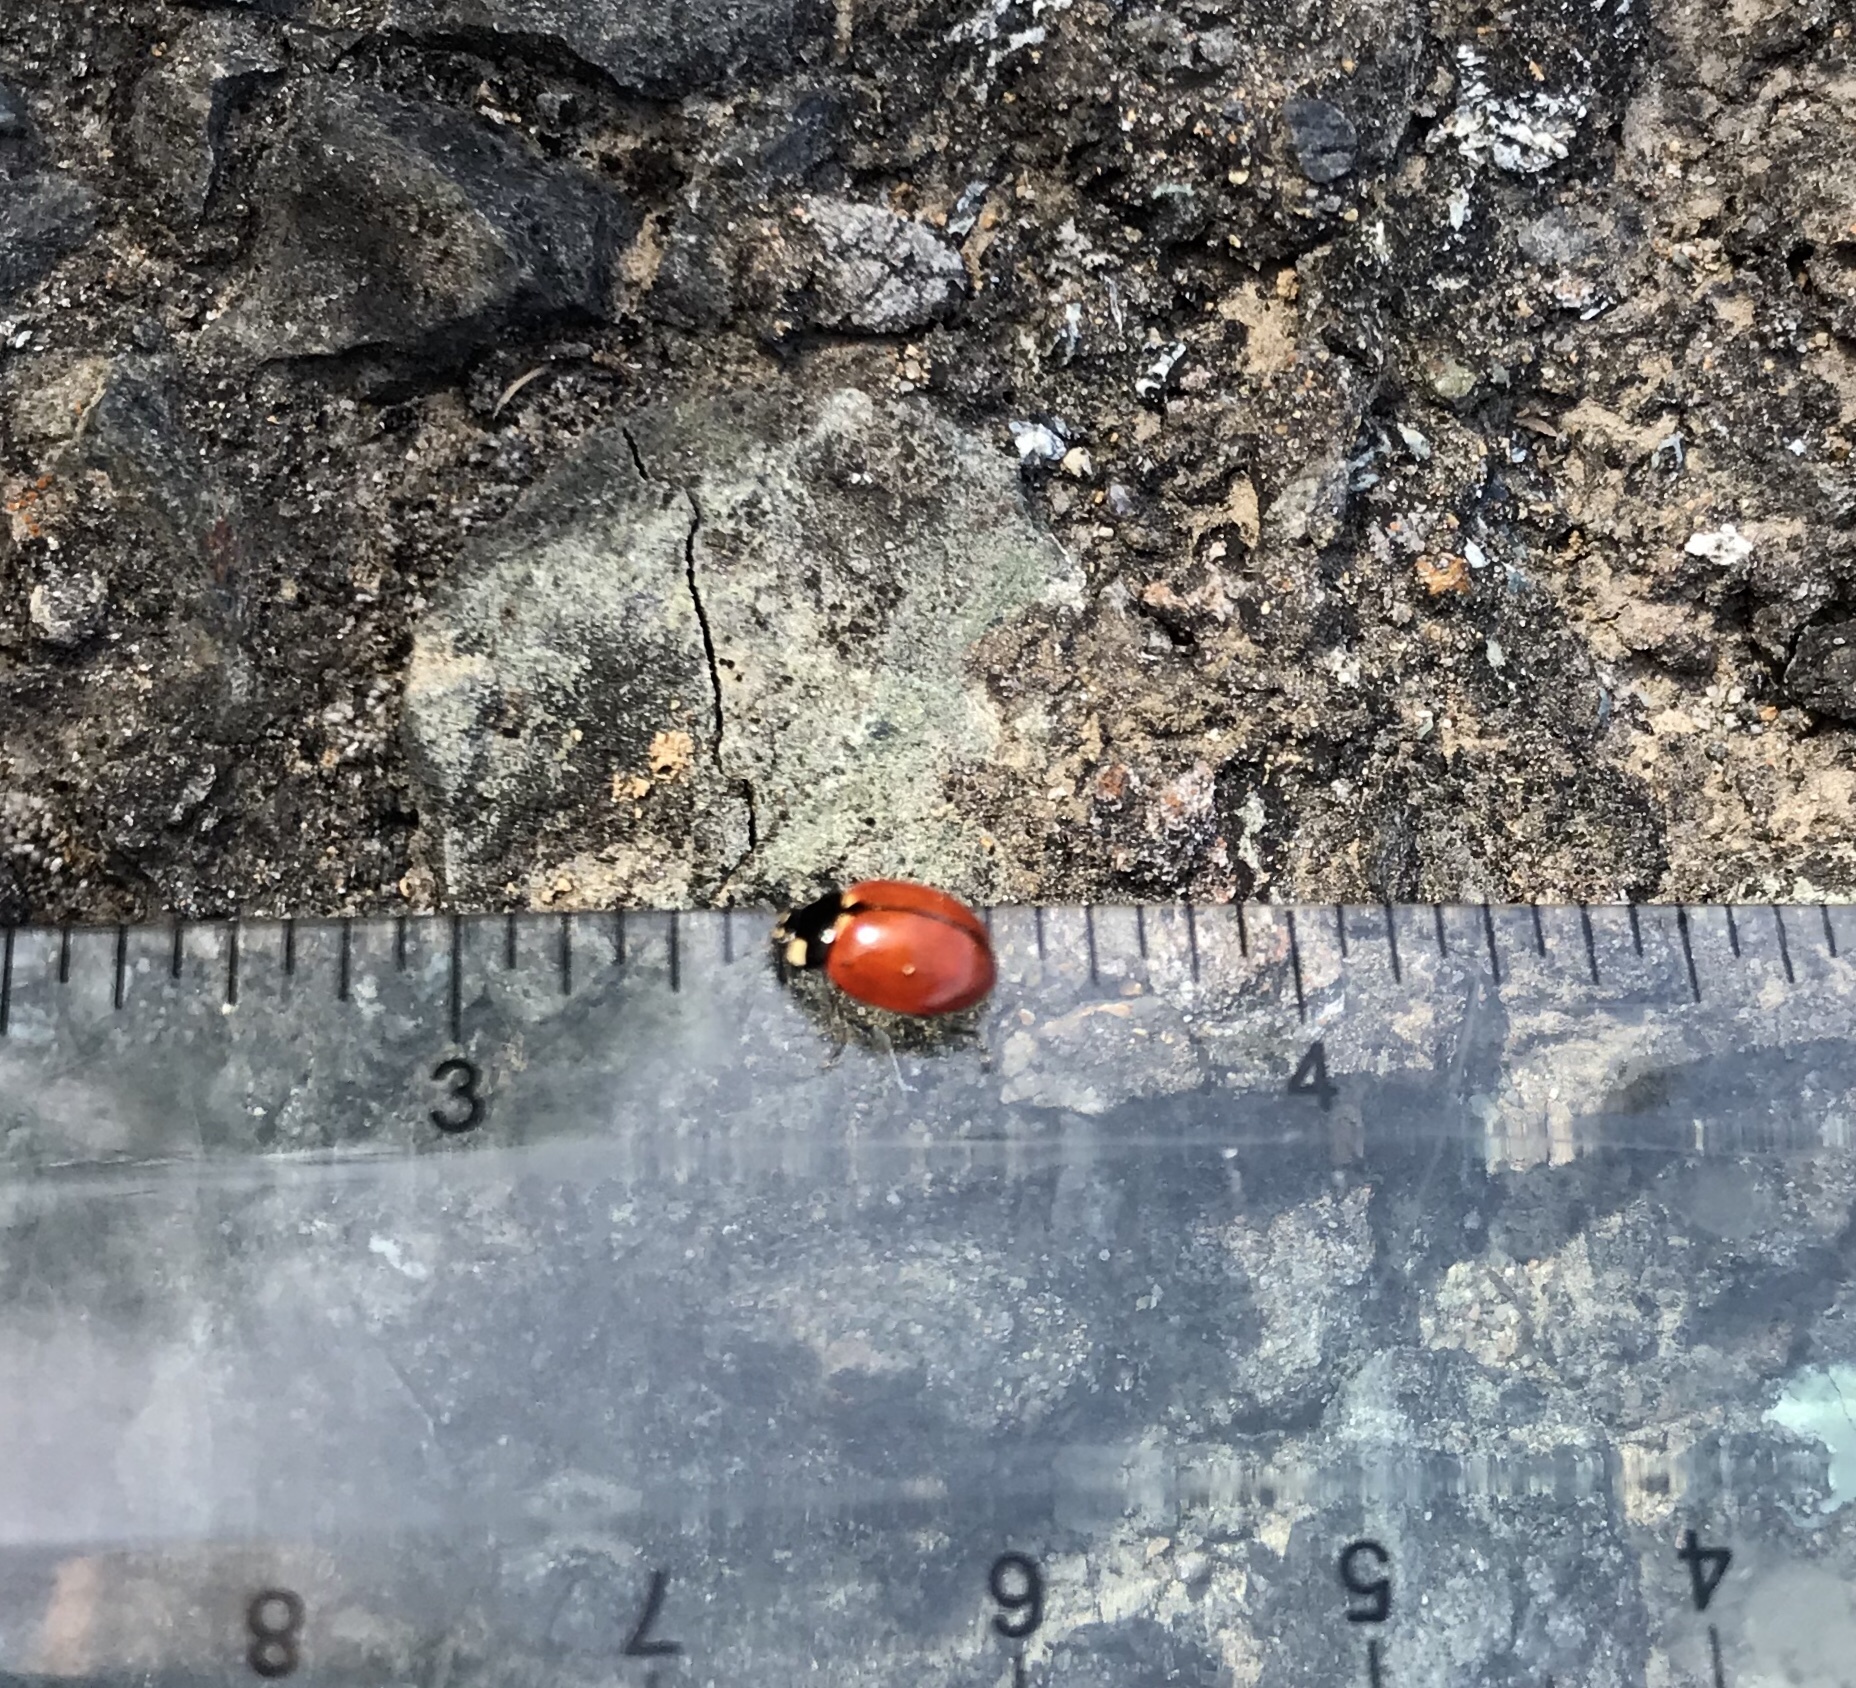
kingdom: Animalia
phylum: Arthropoda
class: Insecta
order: Coleoptera
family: Coccinellidae
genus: Coccinella
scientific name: Coccinella californica
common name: Lady beetle
